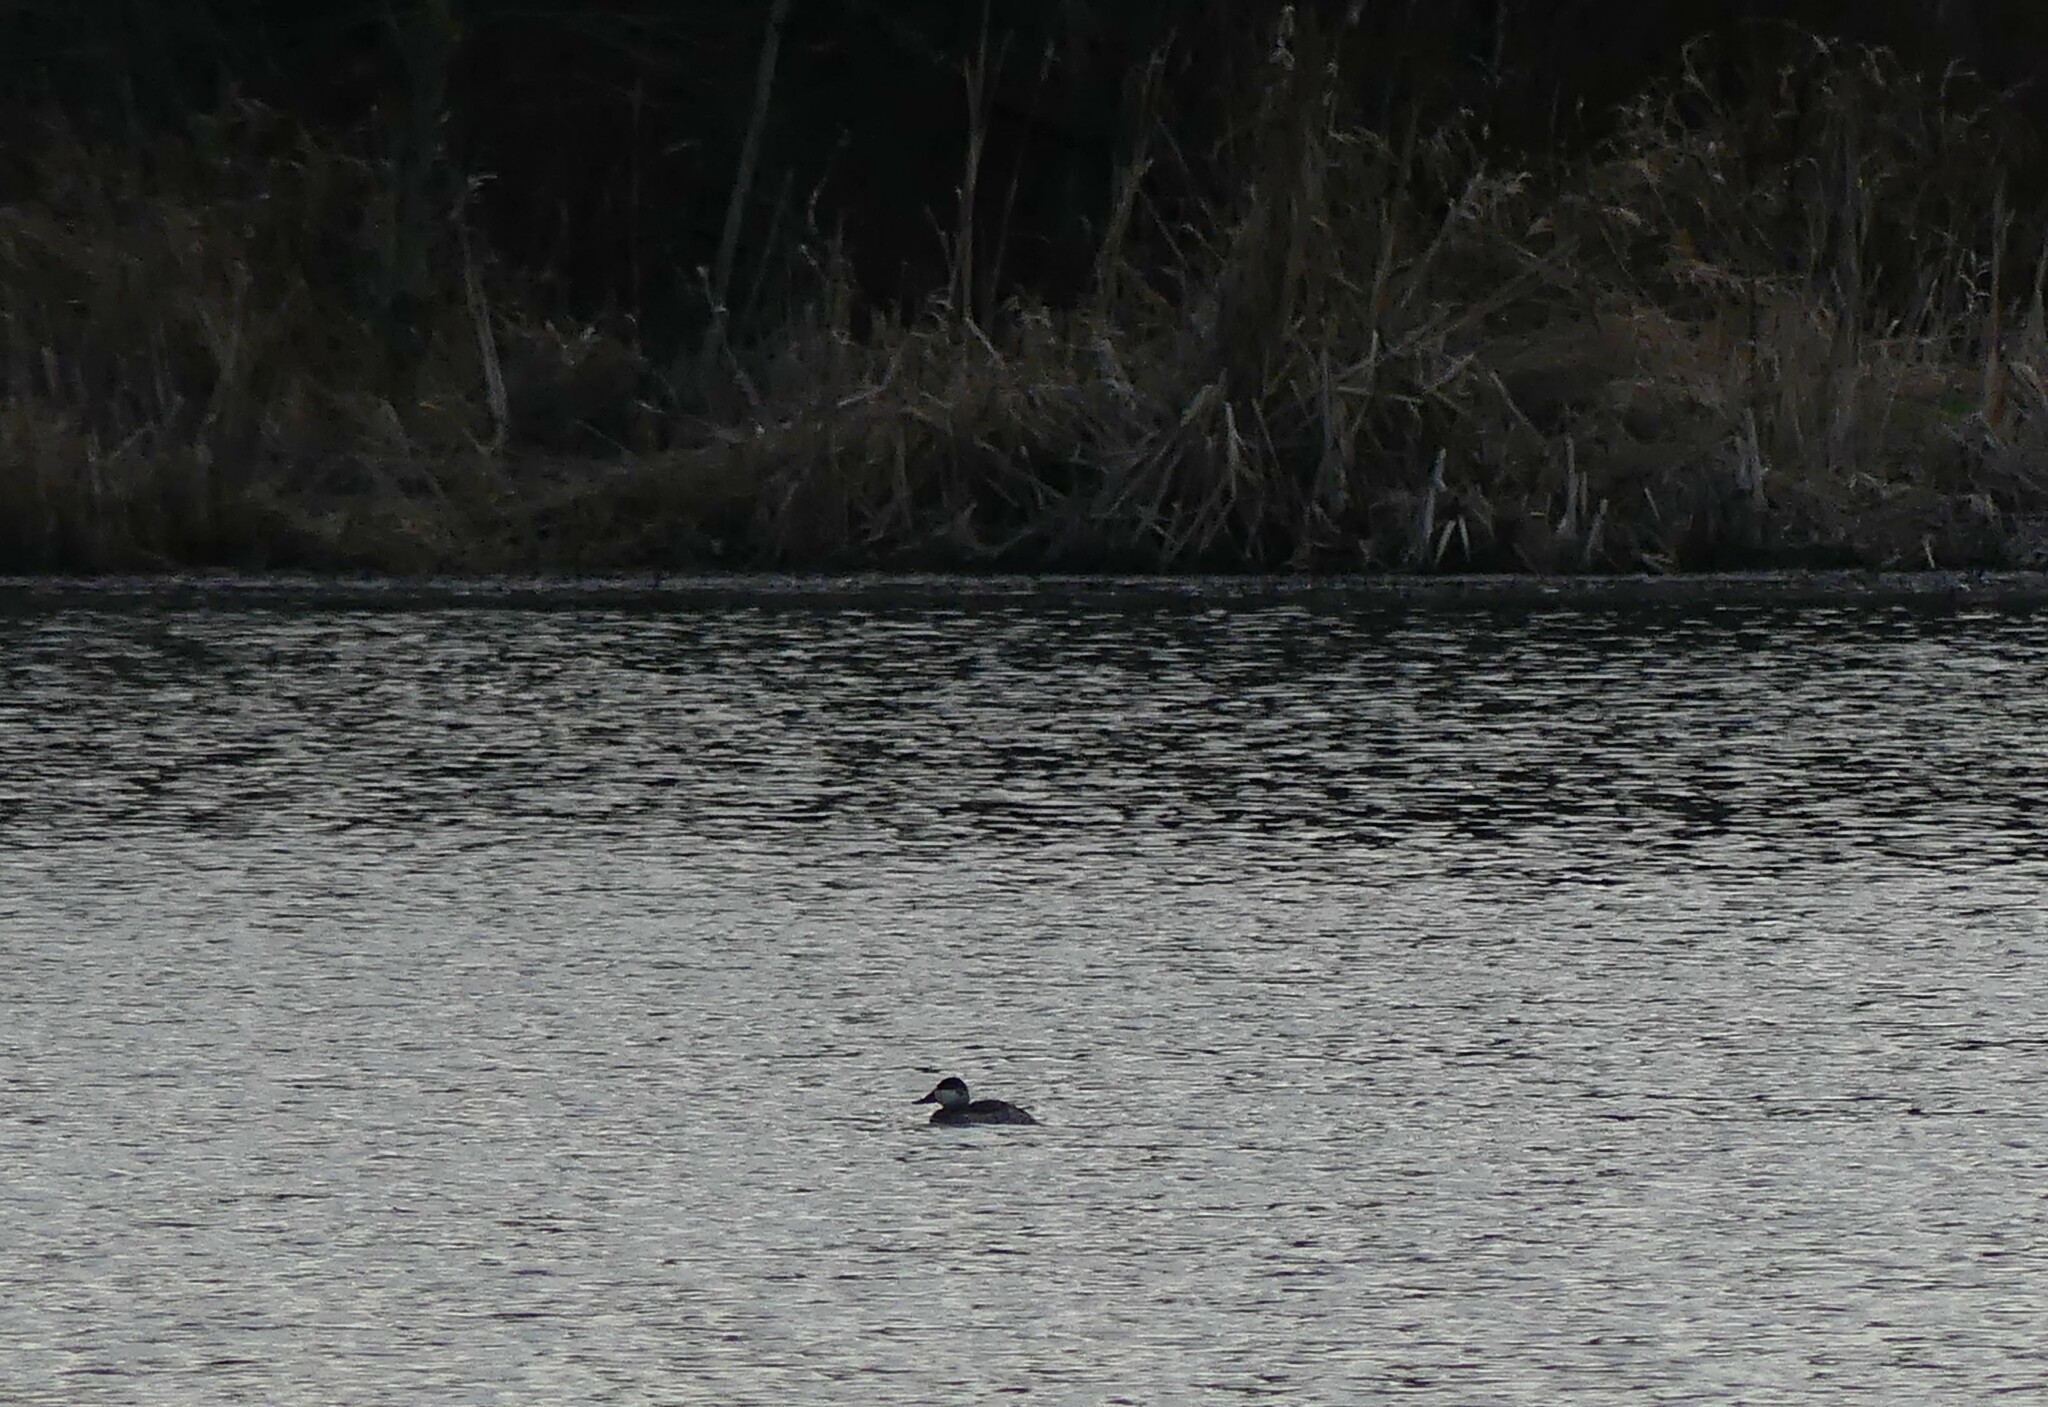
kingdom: Animalia
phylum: Chordata
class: Aves
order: Anseriformes
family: Anatidae
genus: Oxyura
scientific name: Oxyura jamaicensis
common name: Ruddy duck
